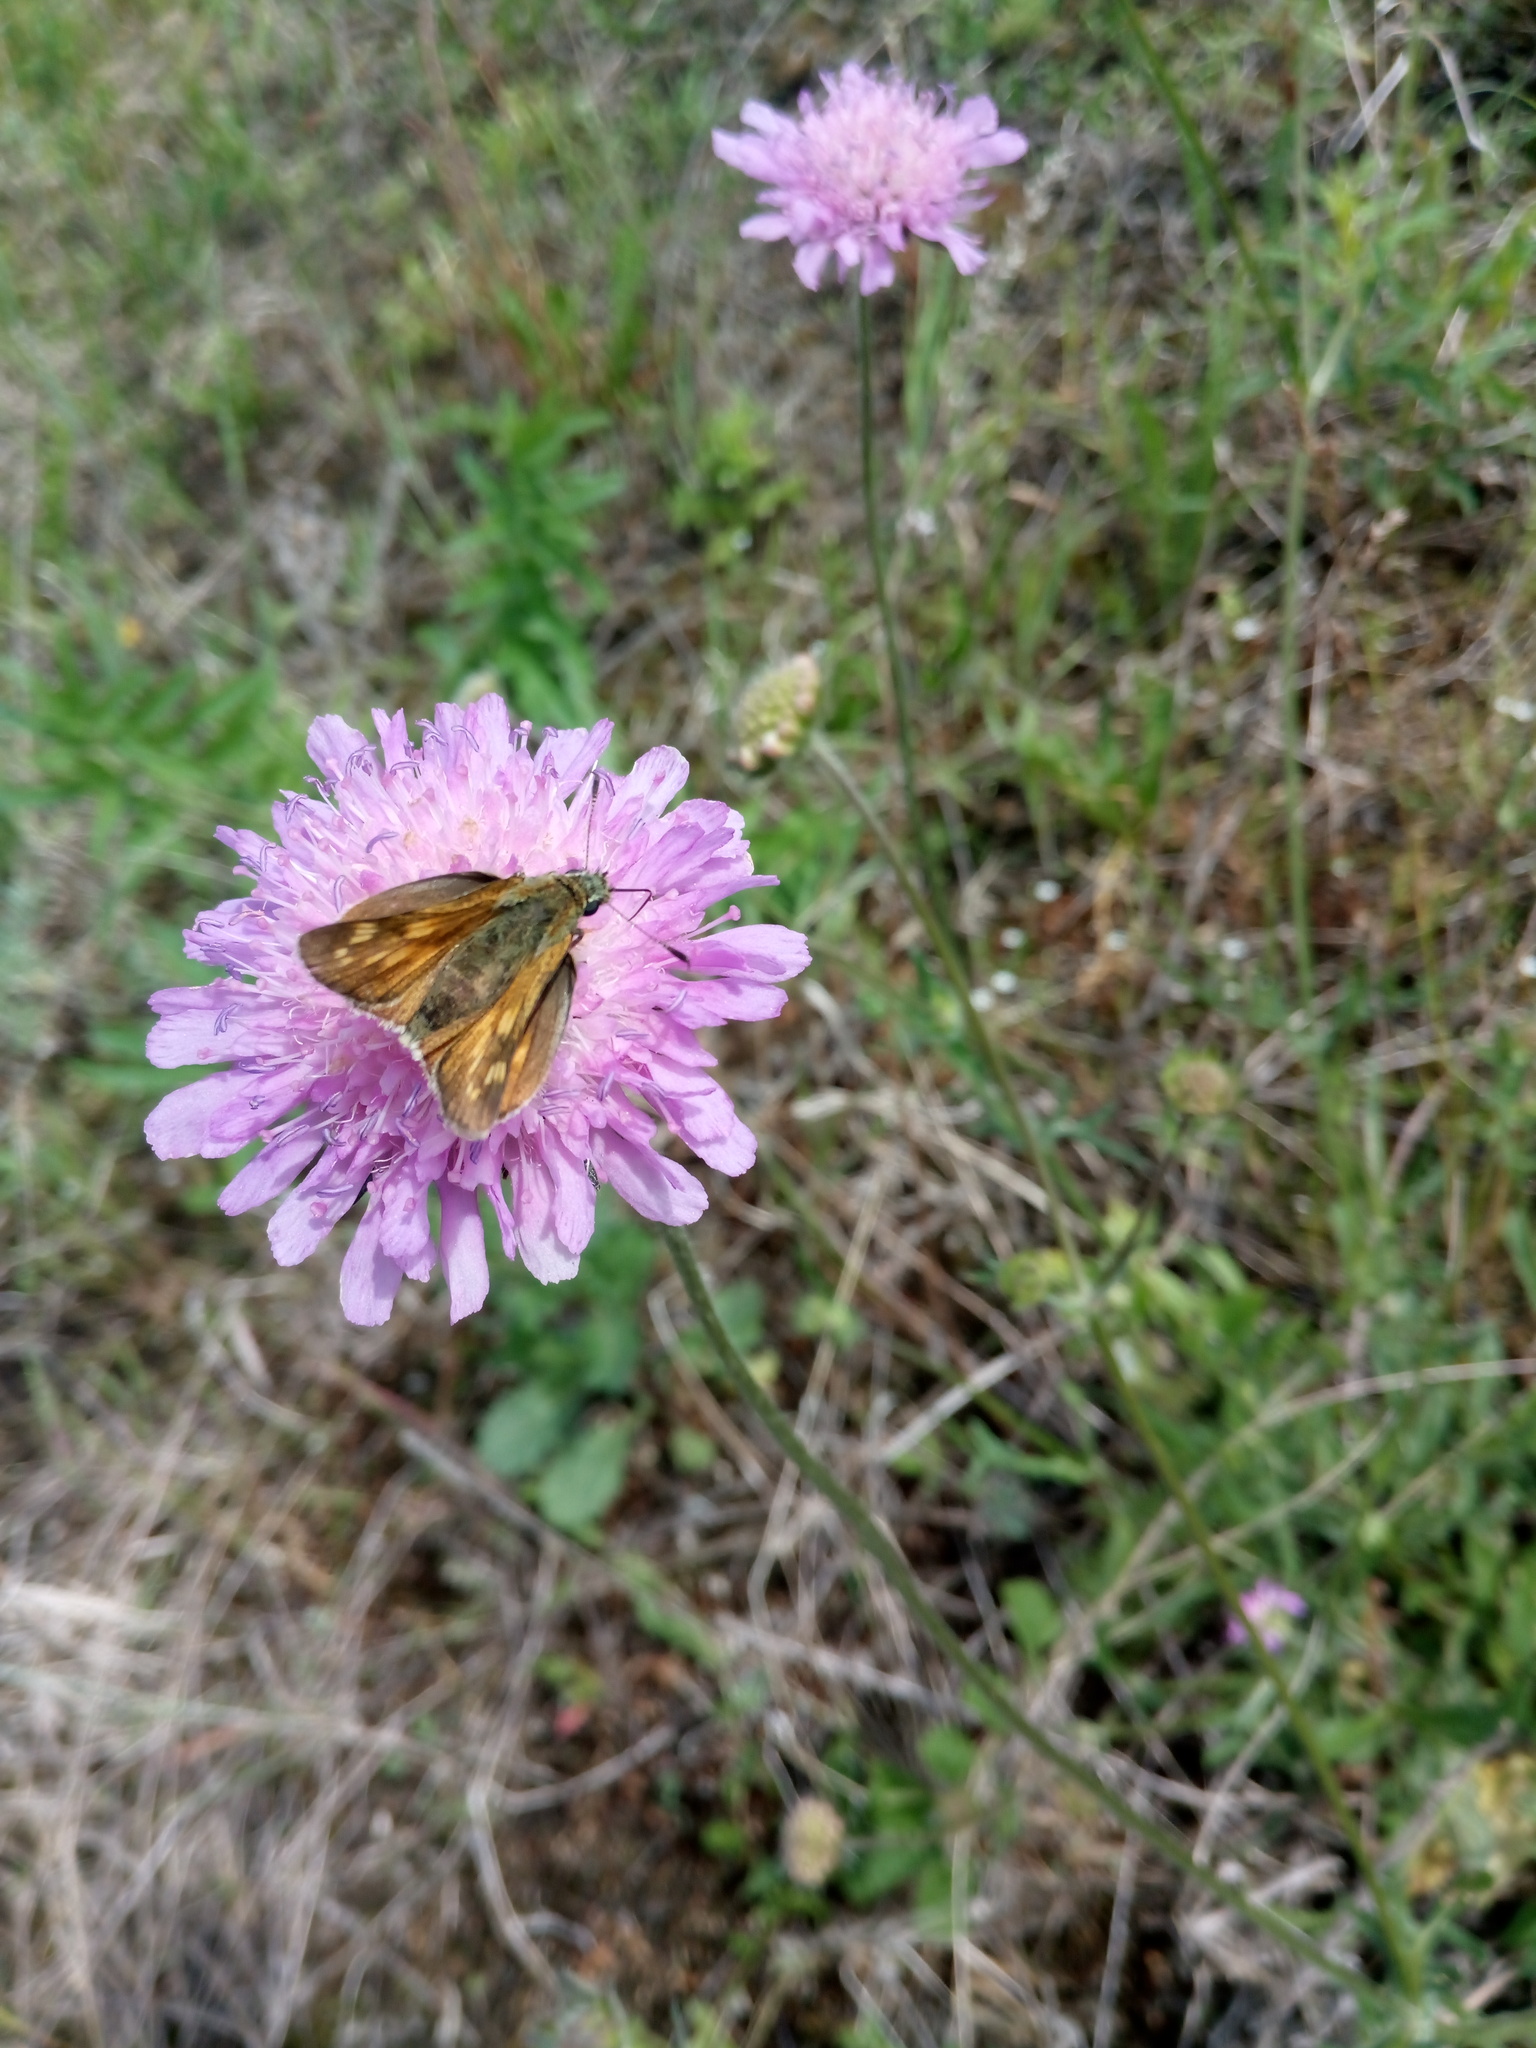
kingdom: Animalia
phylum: Arthropoda
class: Insecta
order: Lepidoptera
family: Hesperiidae
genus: Ochlodes
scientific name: Ochlodes venata
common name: Large skipper
